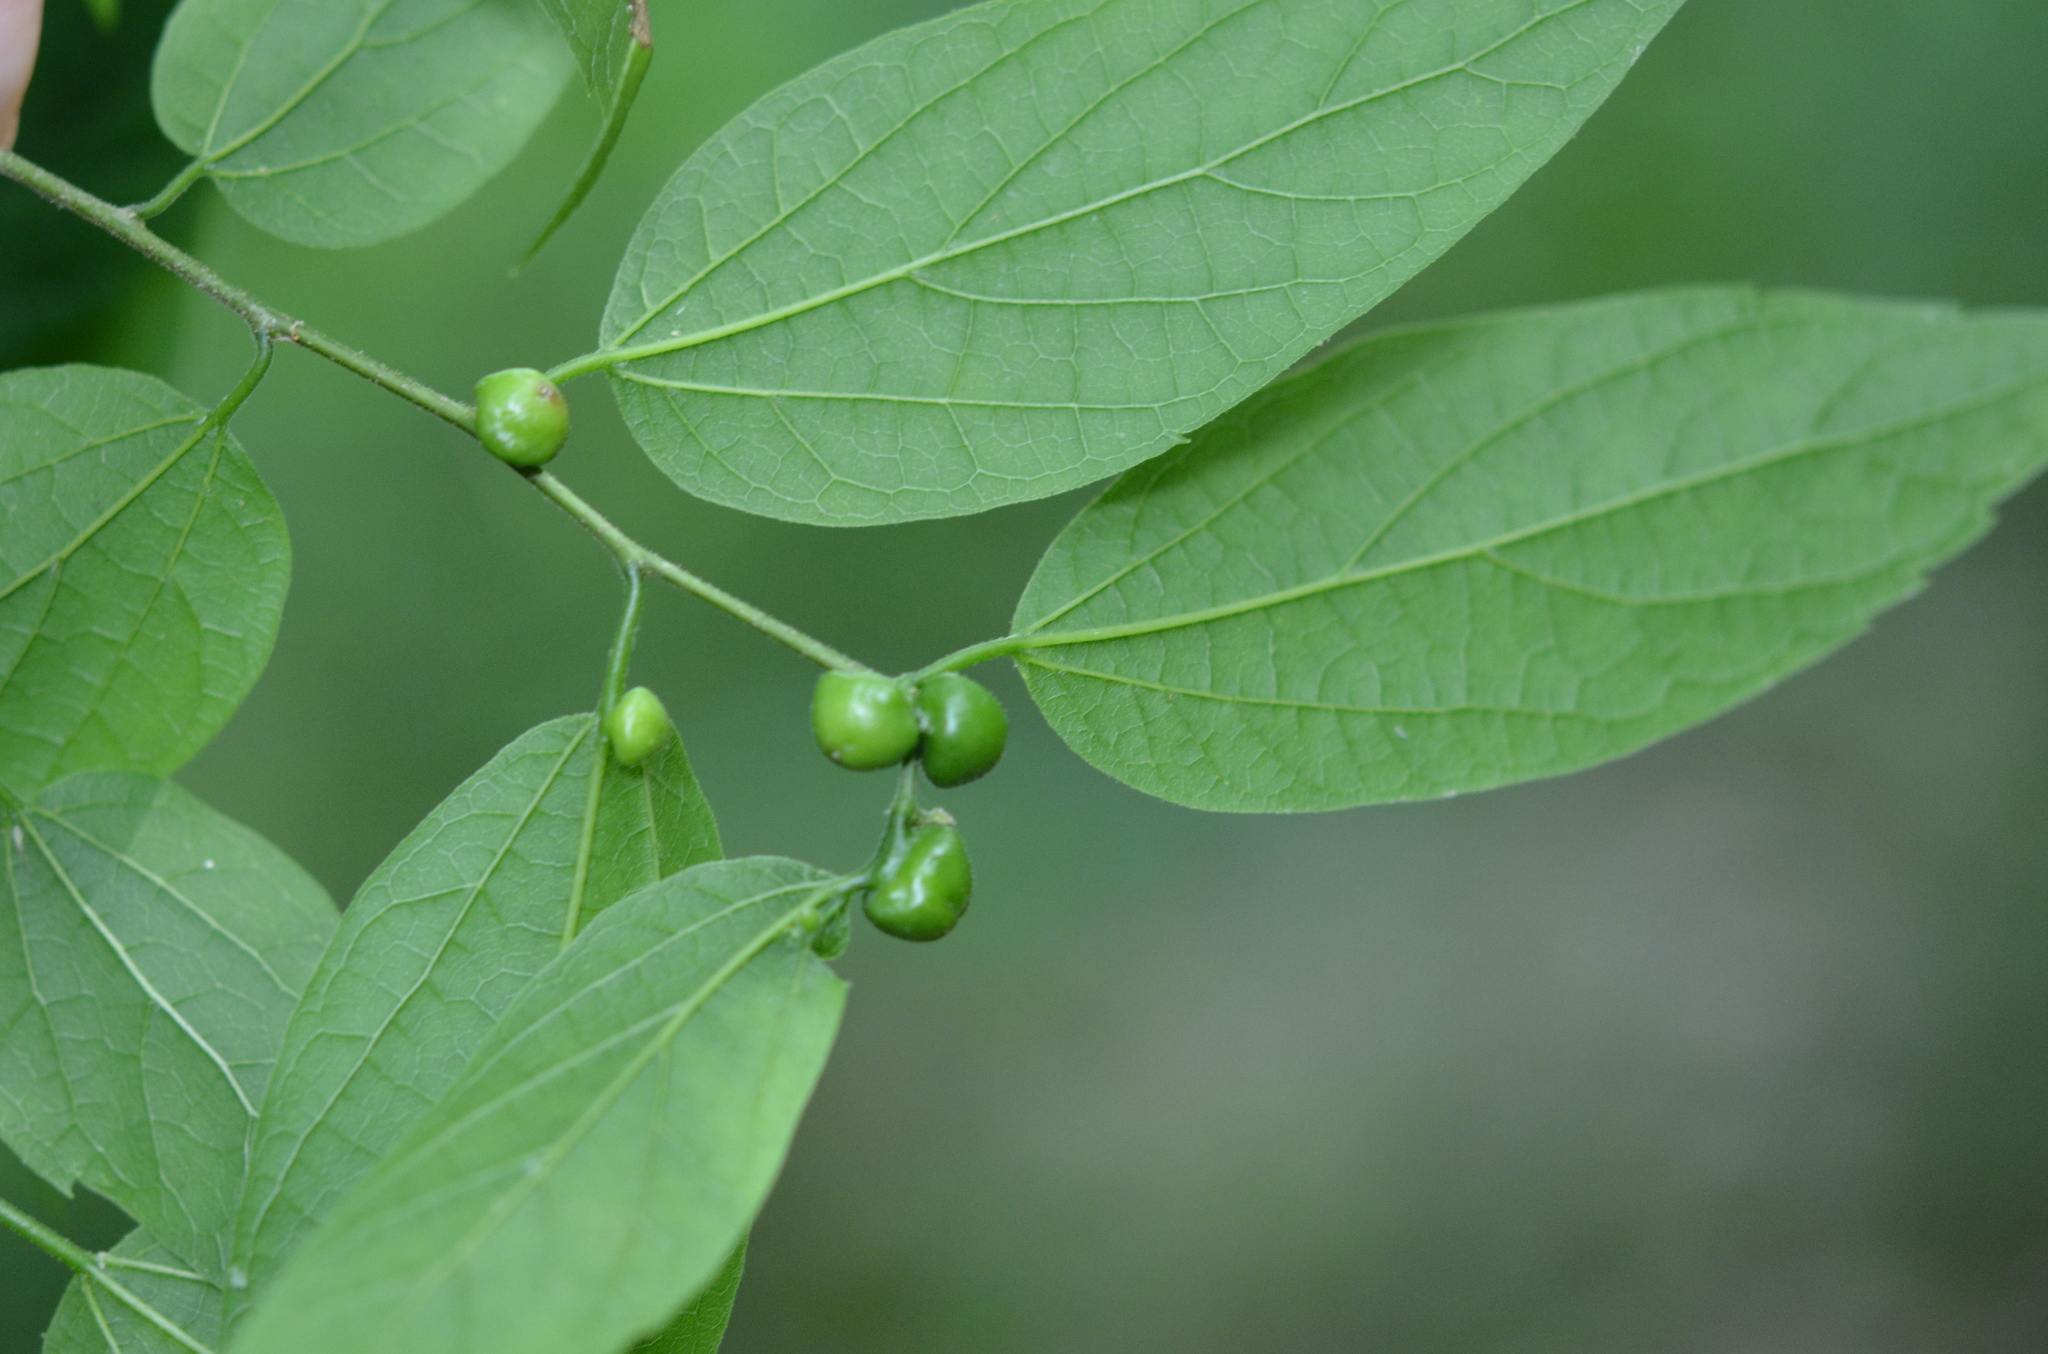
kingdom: Animalia
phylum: Arthropoda
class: Insecta
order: Diptera
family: Cecidomyiidae
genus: Celticecis
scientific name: Celticecis connata
